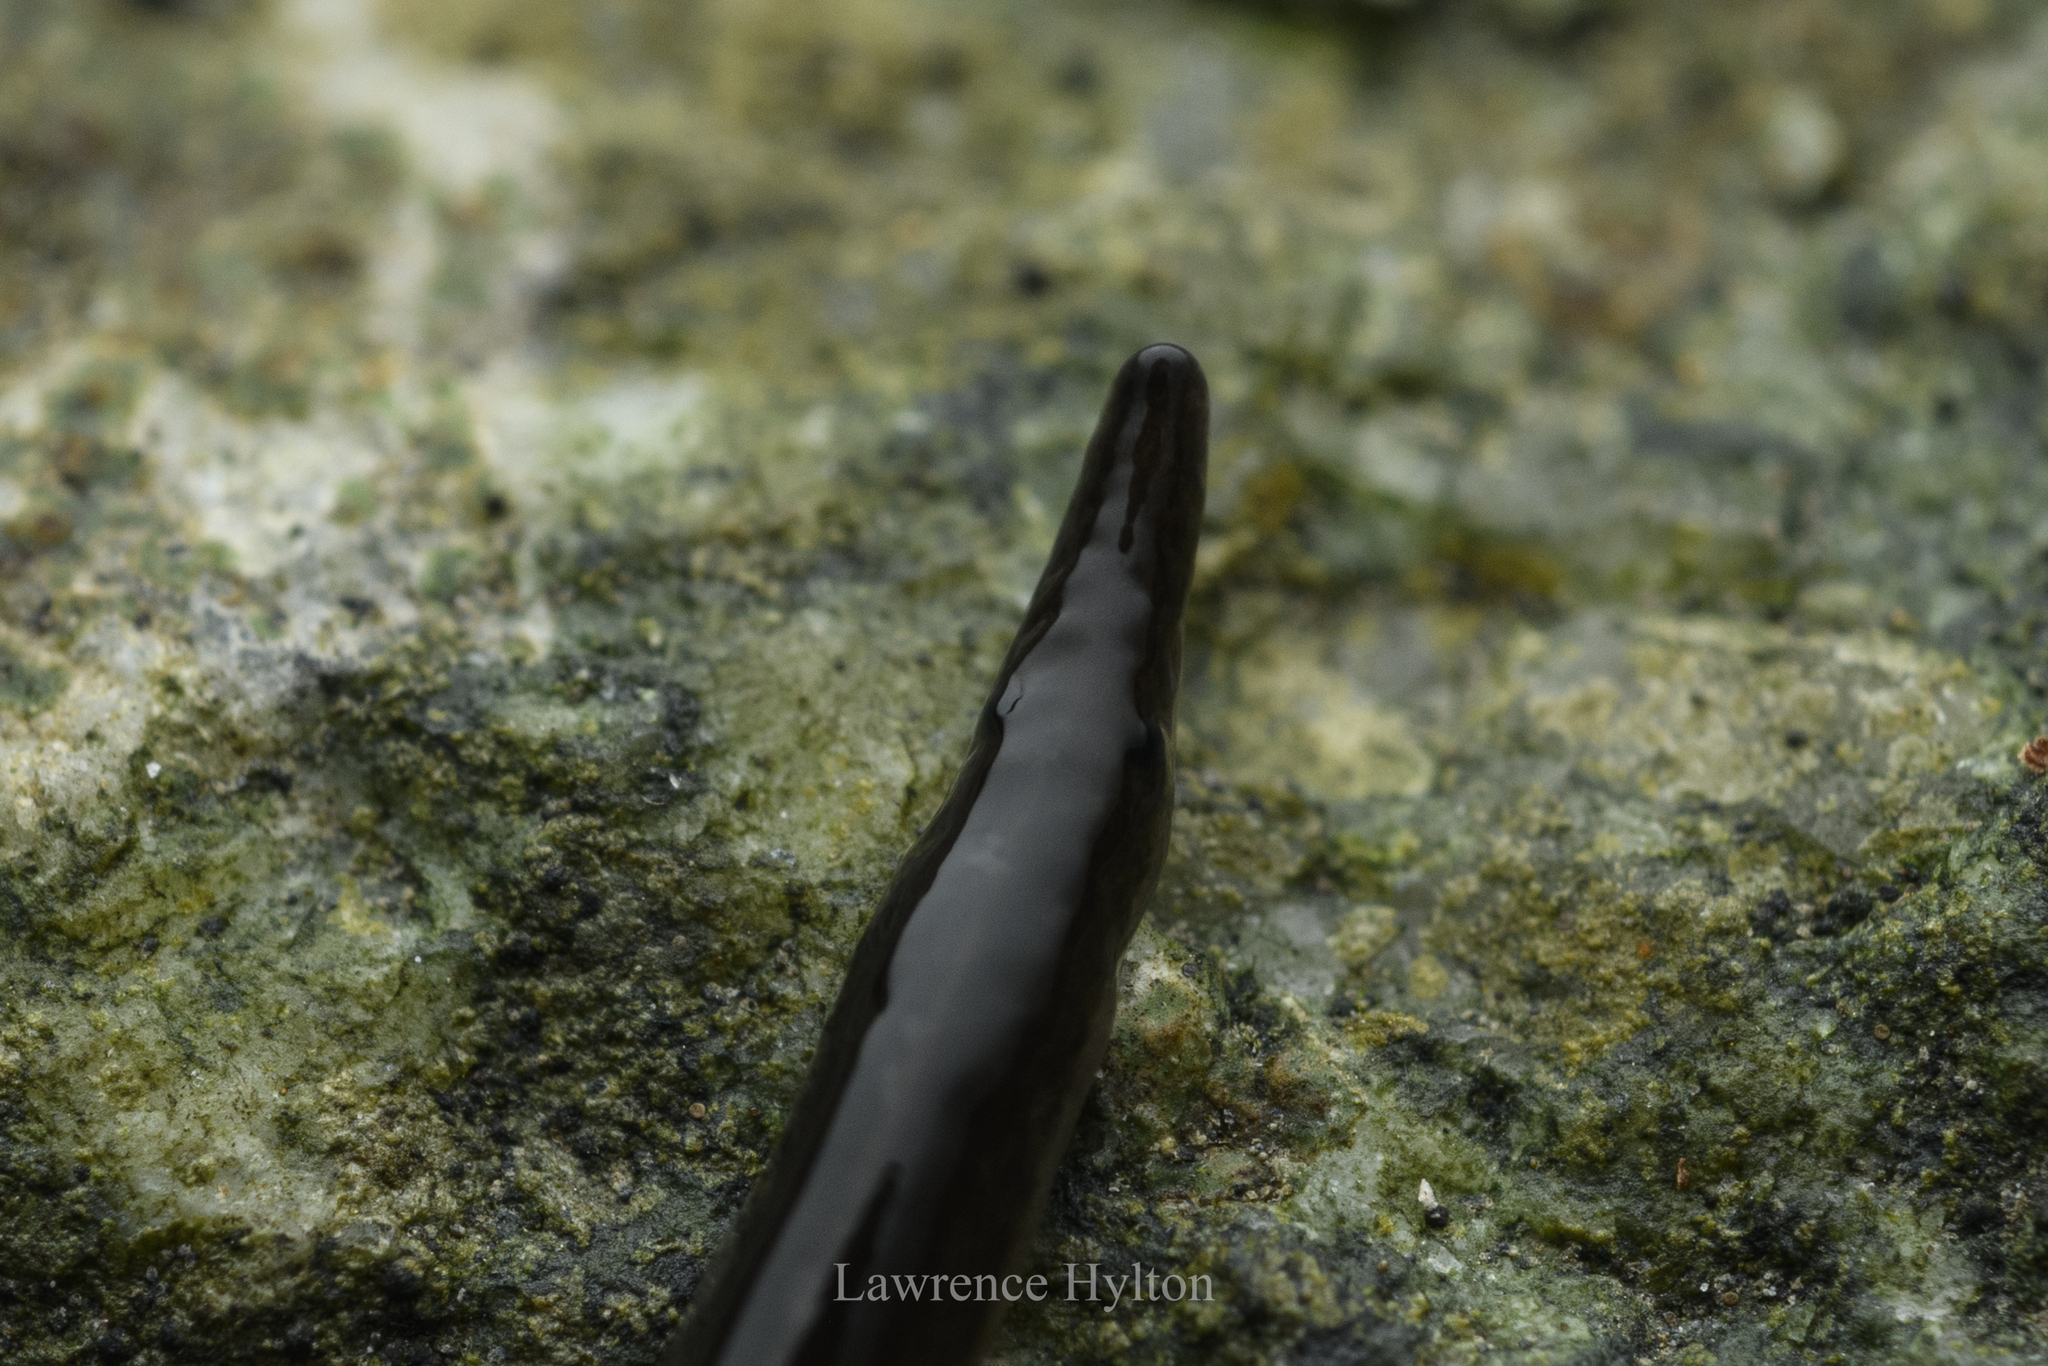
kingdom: Animalia
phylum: Platyhelminthes
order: Tricladida
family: Geoplanidae
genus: Platydemus
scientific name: Platydemus manokwari
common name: New guinea flatworm
